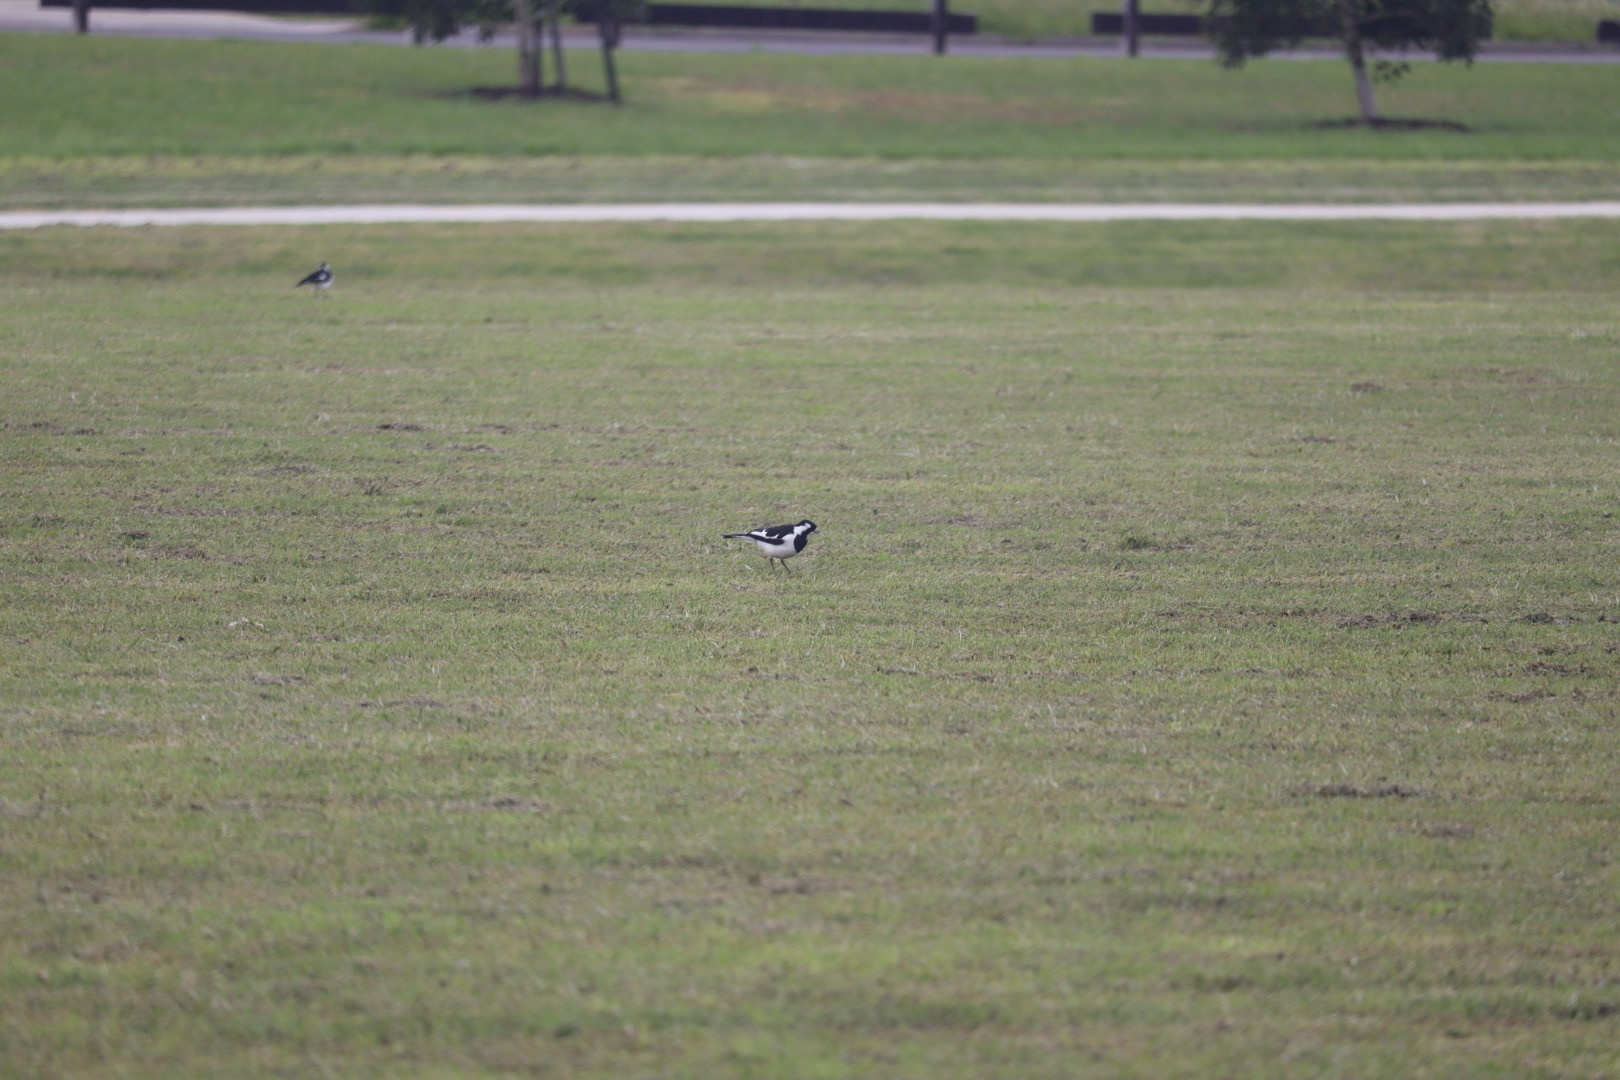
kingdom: Animalia
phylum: Chordata
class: Aves
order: Passeriformes
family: Monarchidae
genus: Grallina
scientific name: Grallina cyanoleuca
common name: Magpie-lark
